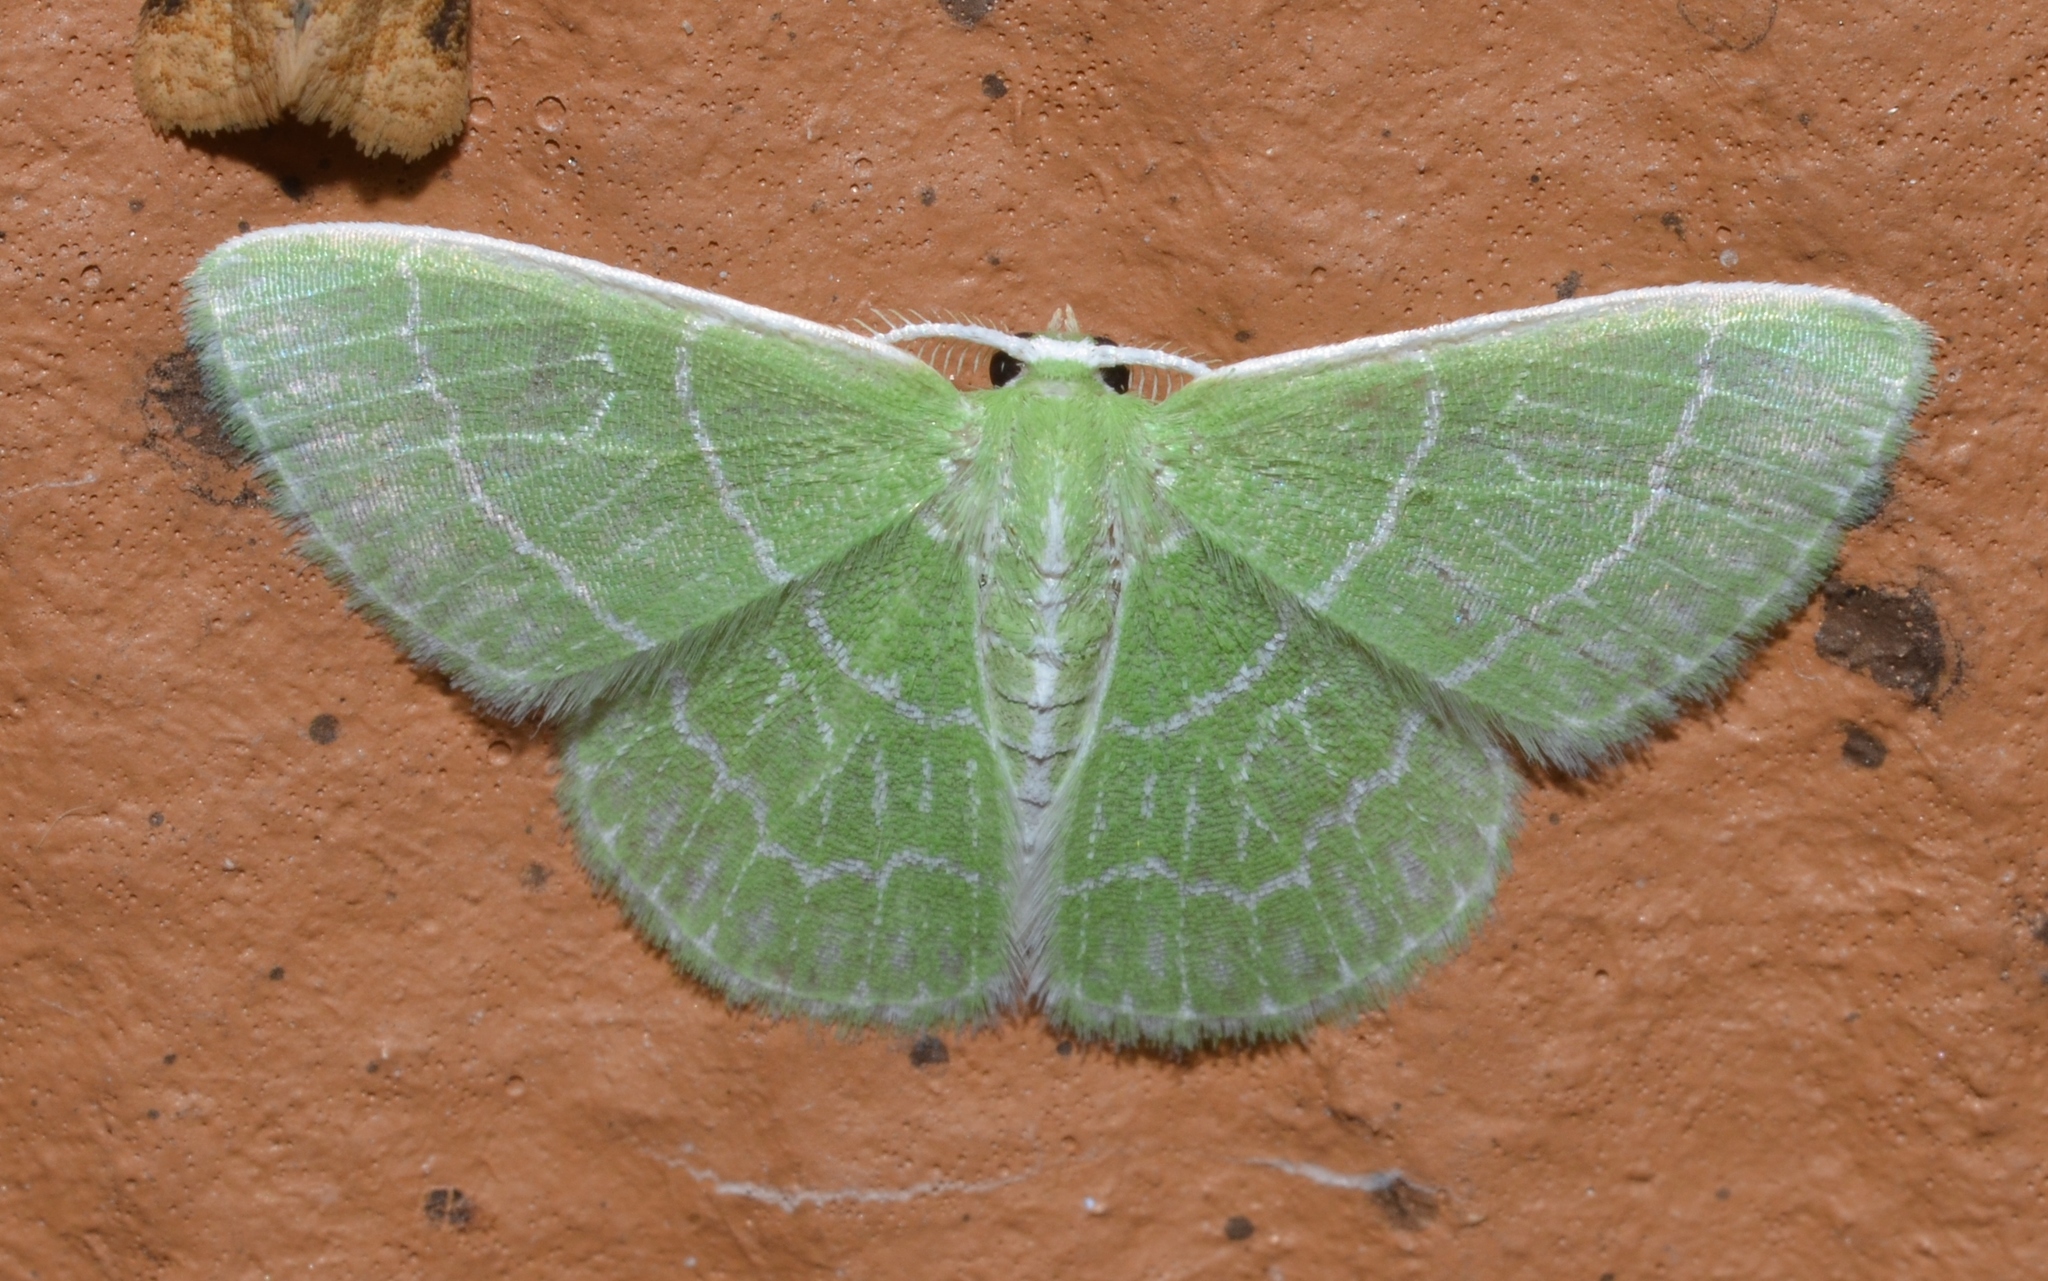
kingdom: Animalia
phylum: Arthropoda
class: Insecta
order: Lepidoptera
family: Geometridae
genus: Synchlora
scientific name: Synchlora aerata
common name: Wavy-lined emerald
